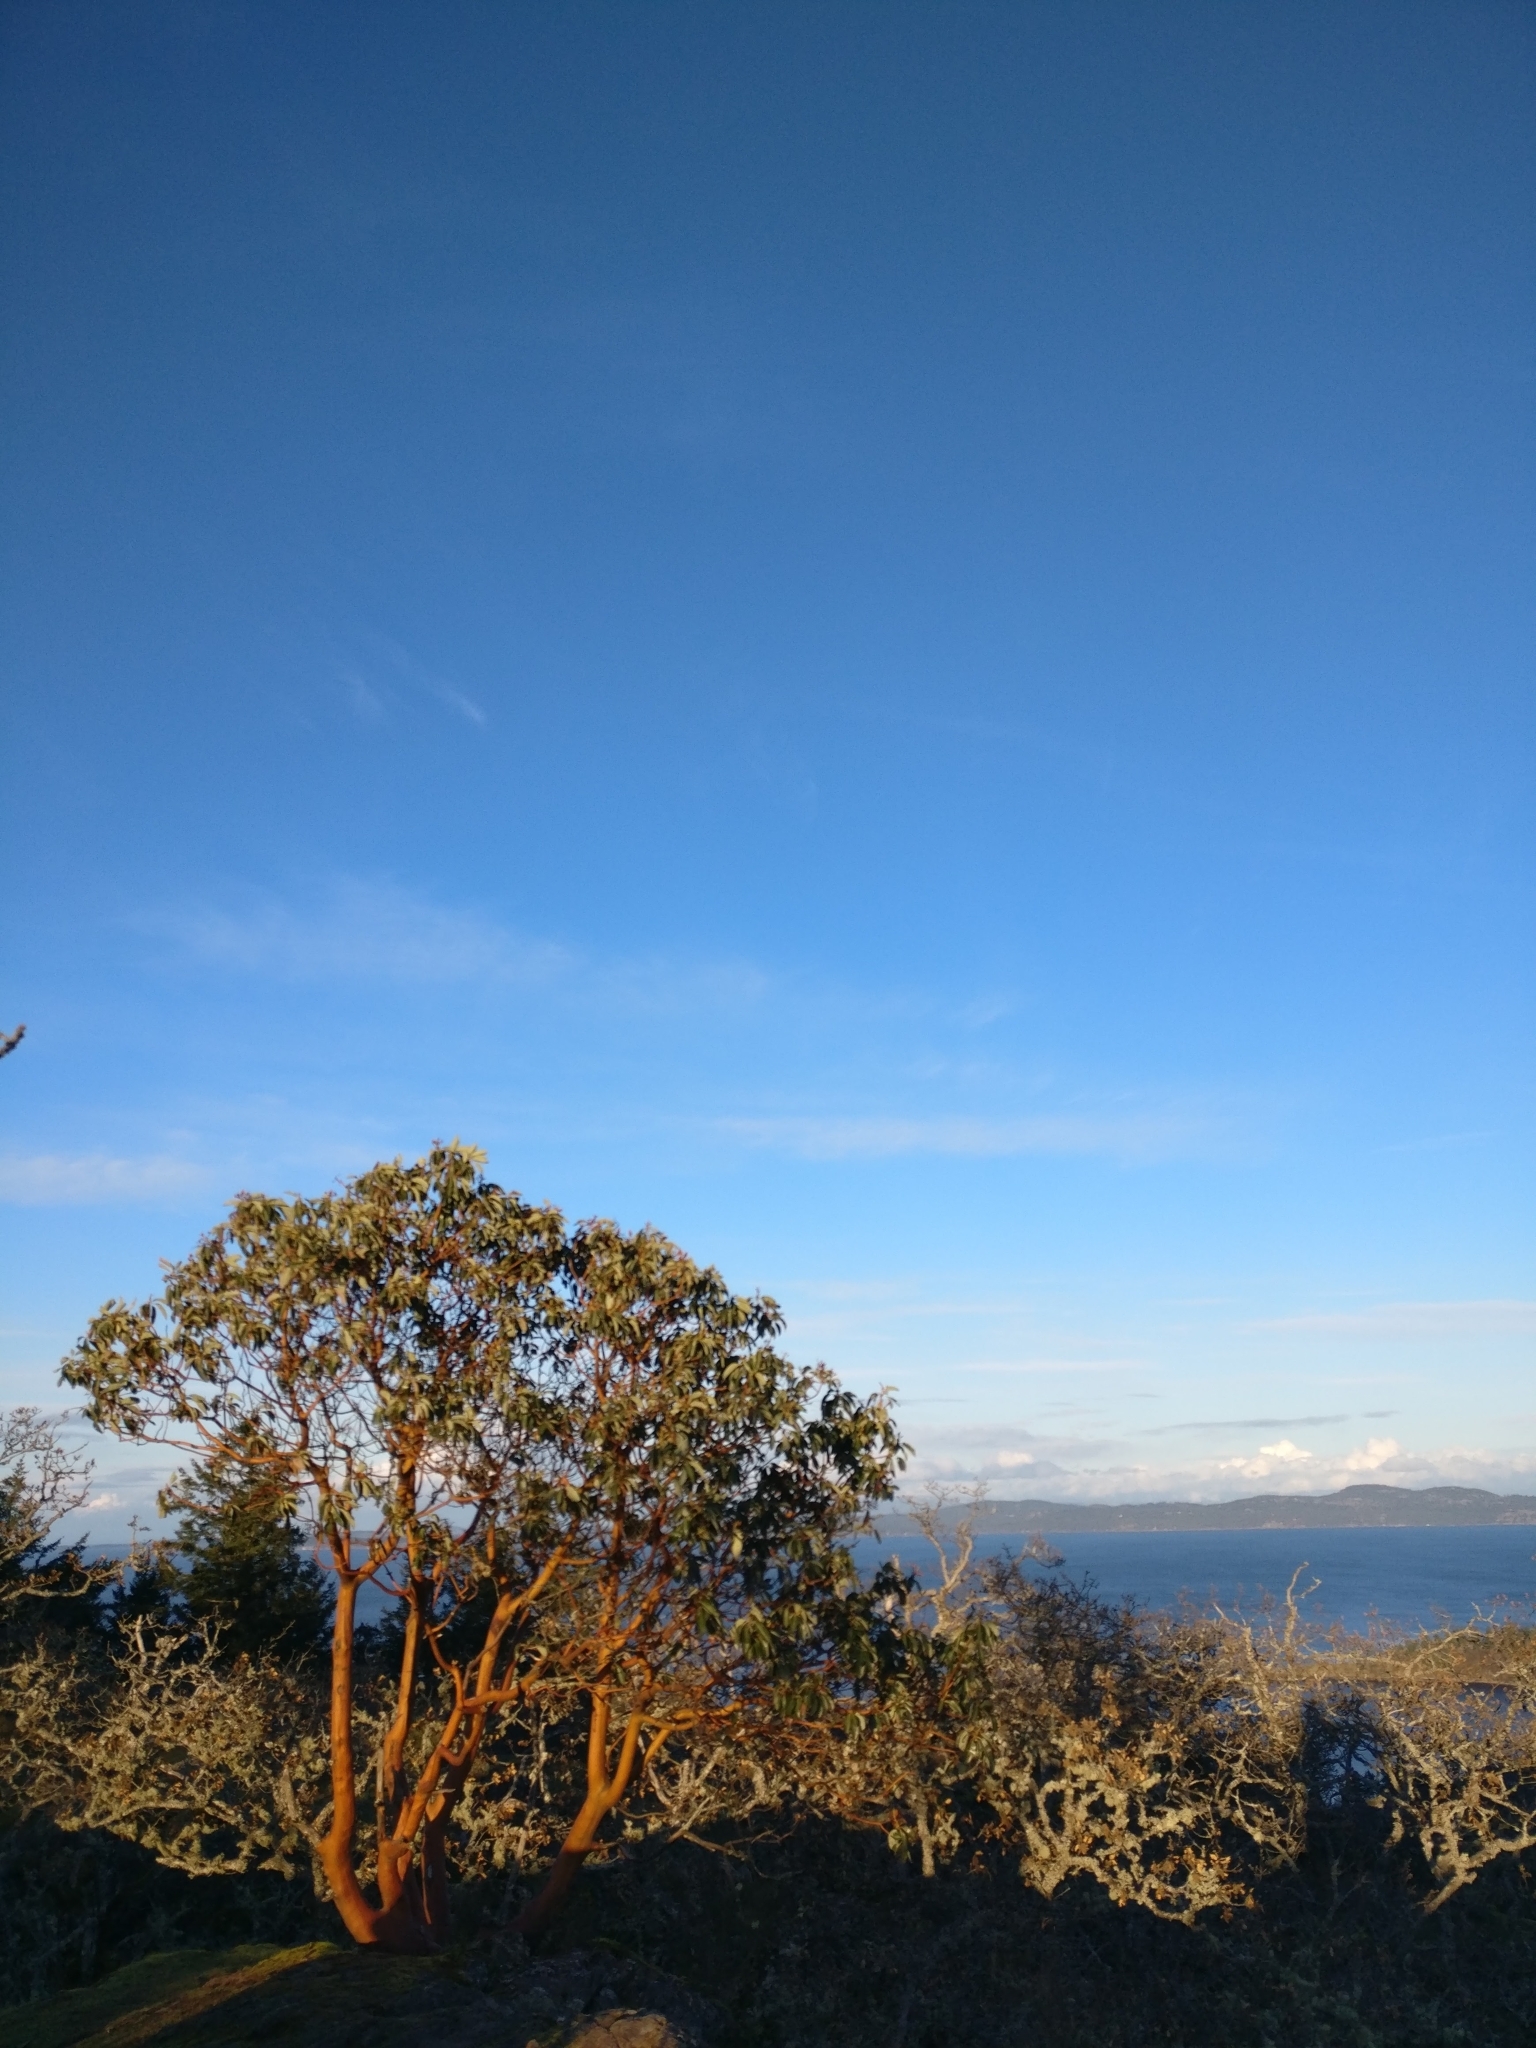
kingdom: Plantae
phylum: Tracheophyta
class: Magnoliopsida
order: Ericales
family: Ericaceae
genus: Arbutus
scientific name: Arbutus menziesii
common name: Pacific madrone
